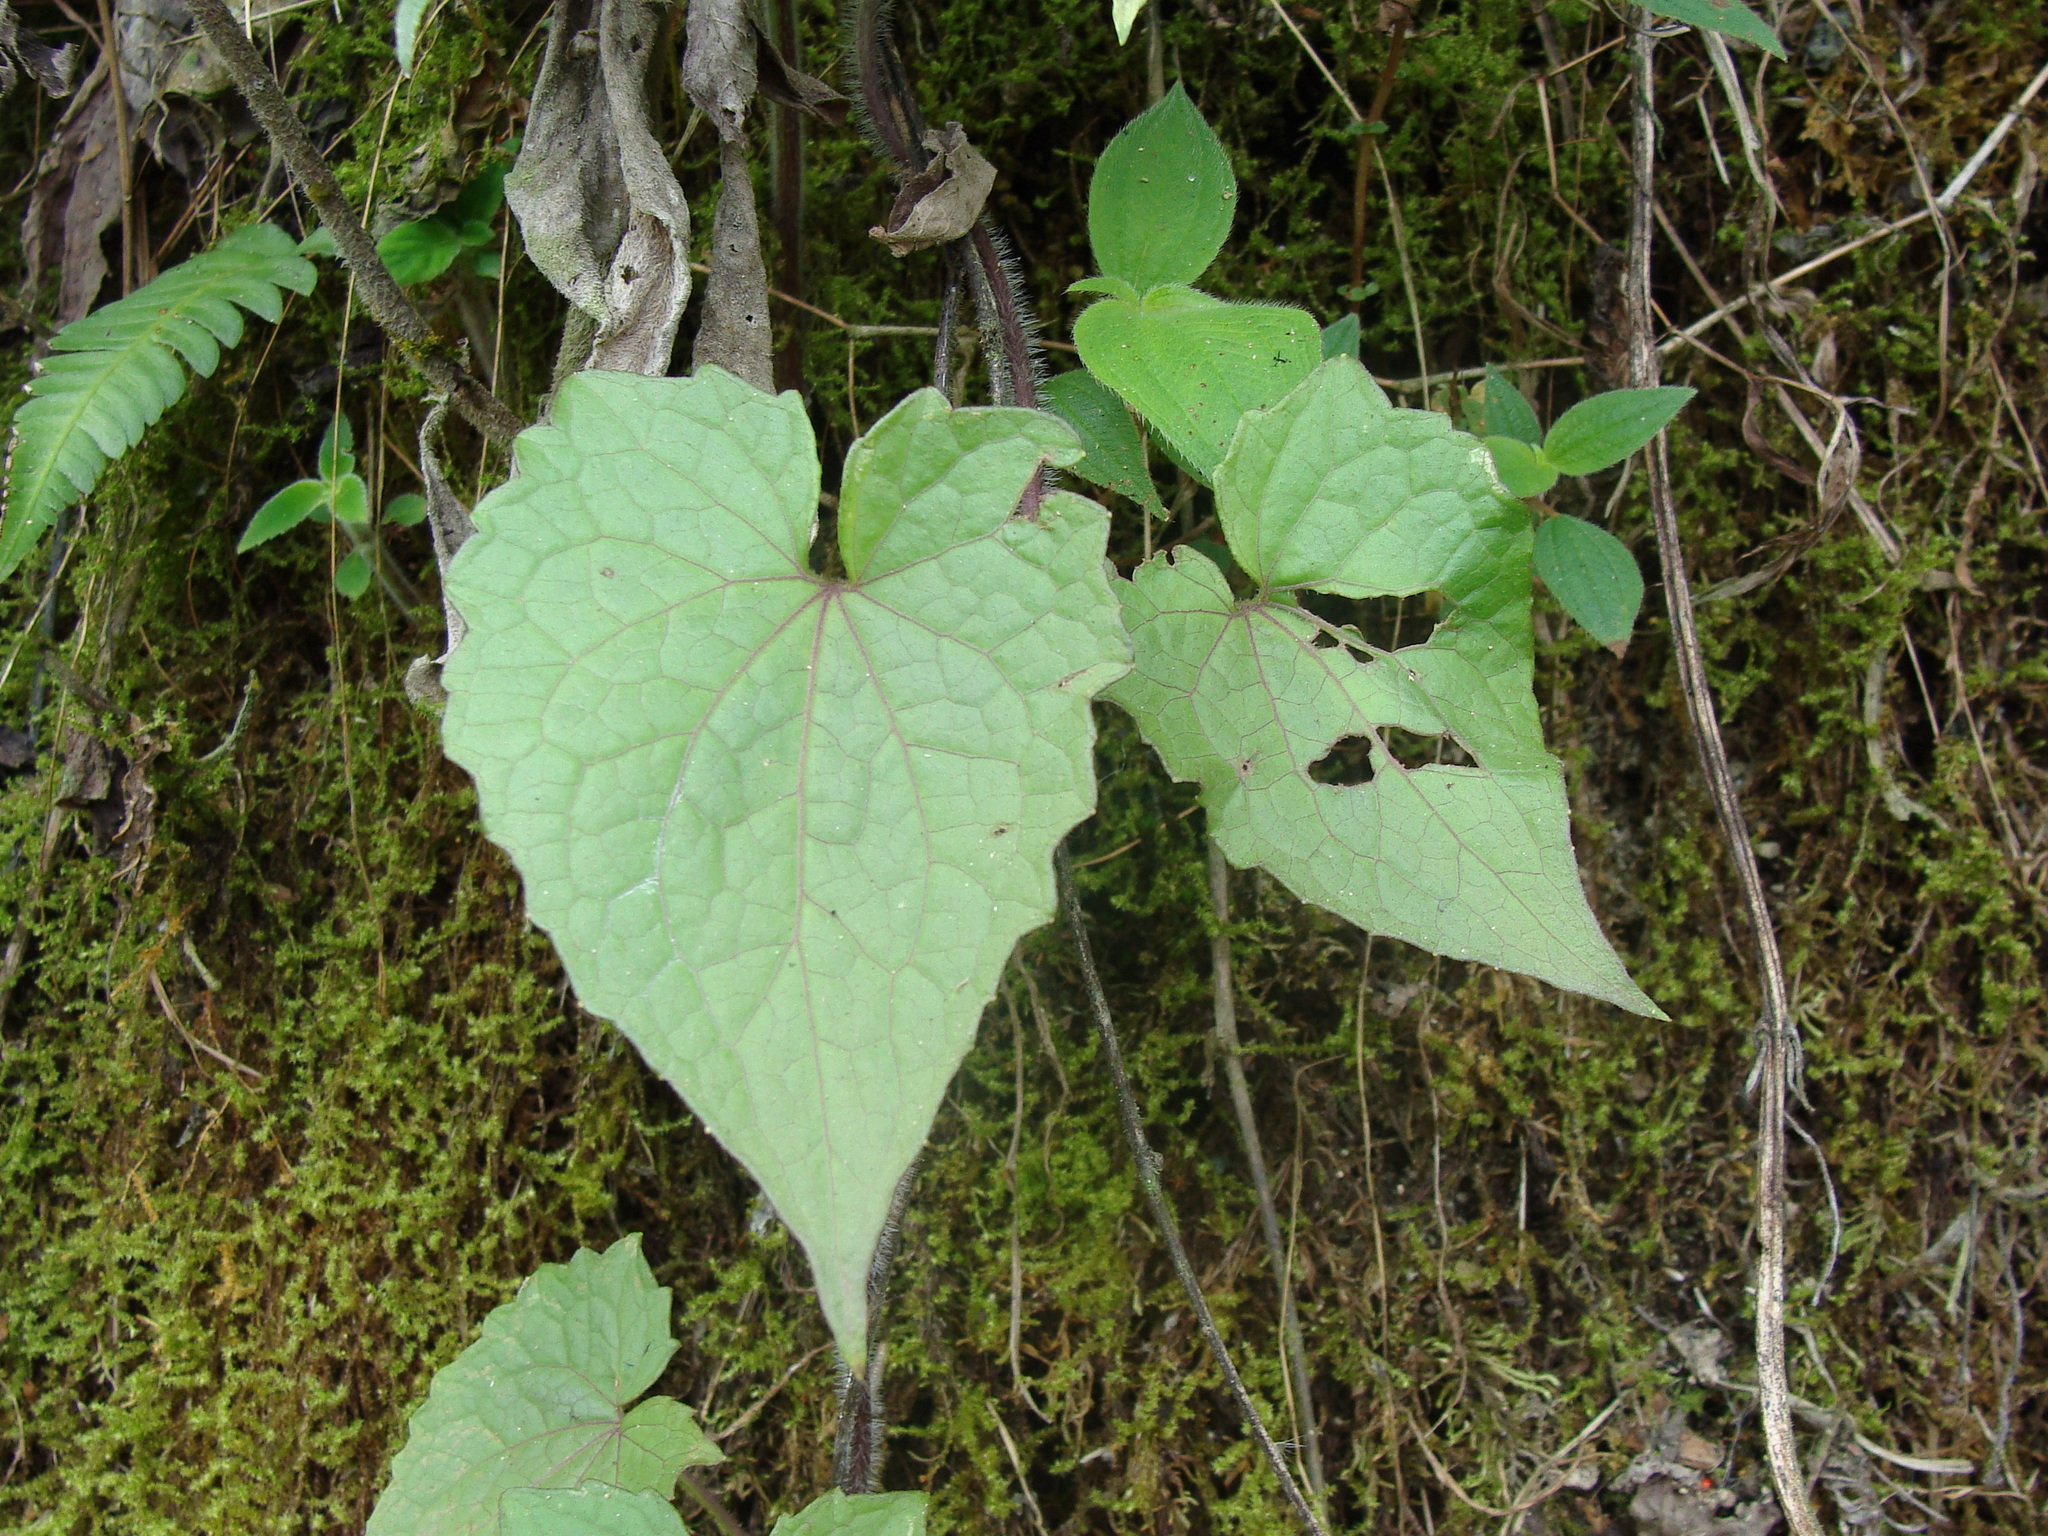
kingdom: Plantae
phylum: Tracheophyta
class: Magnoliopsida
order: Asterales
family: Asteraceae
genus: Mikania
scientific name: Mikania micrantha
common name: Mile-a-minute
